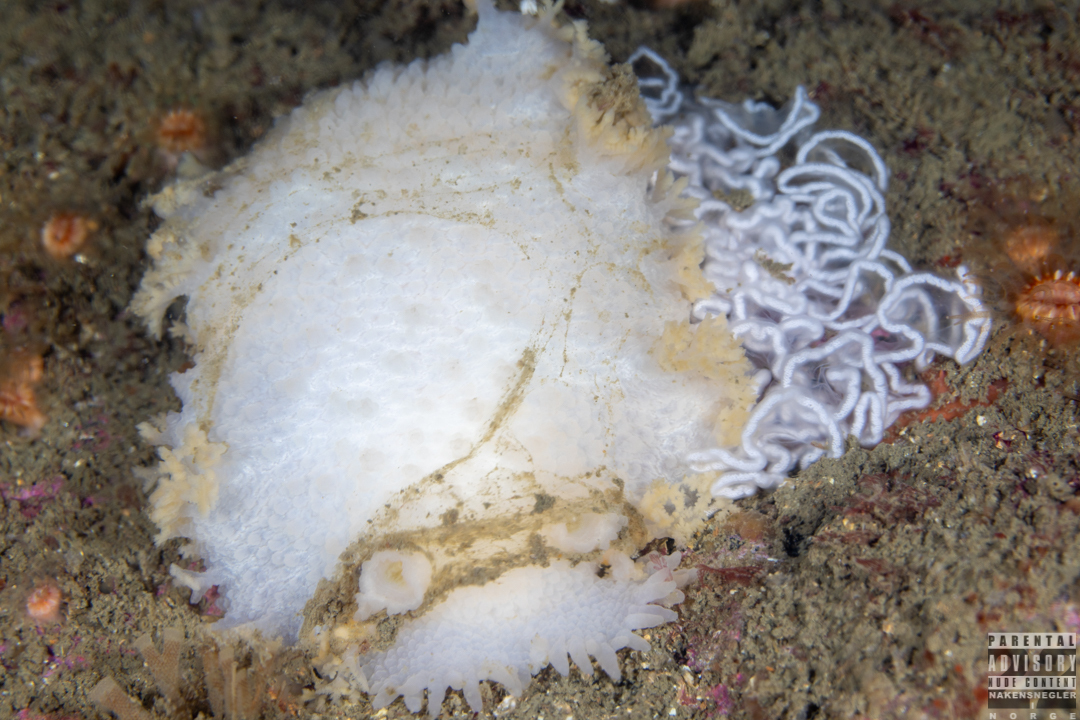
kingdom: Animalia
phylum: Mollusca
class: Gastropoda
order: Nudibranchia
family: Tritoniidae
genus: Tritonia
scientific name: Tritonia hombergii
